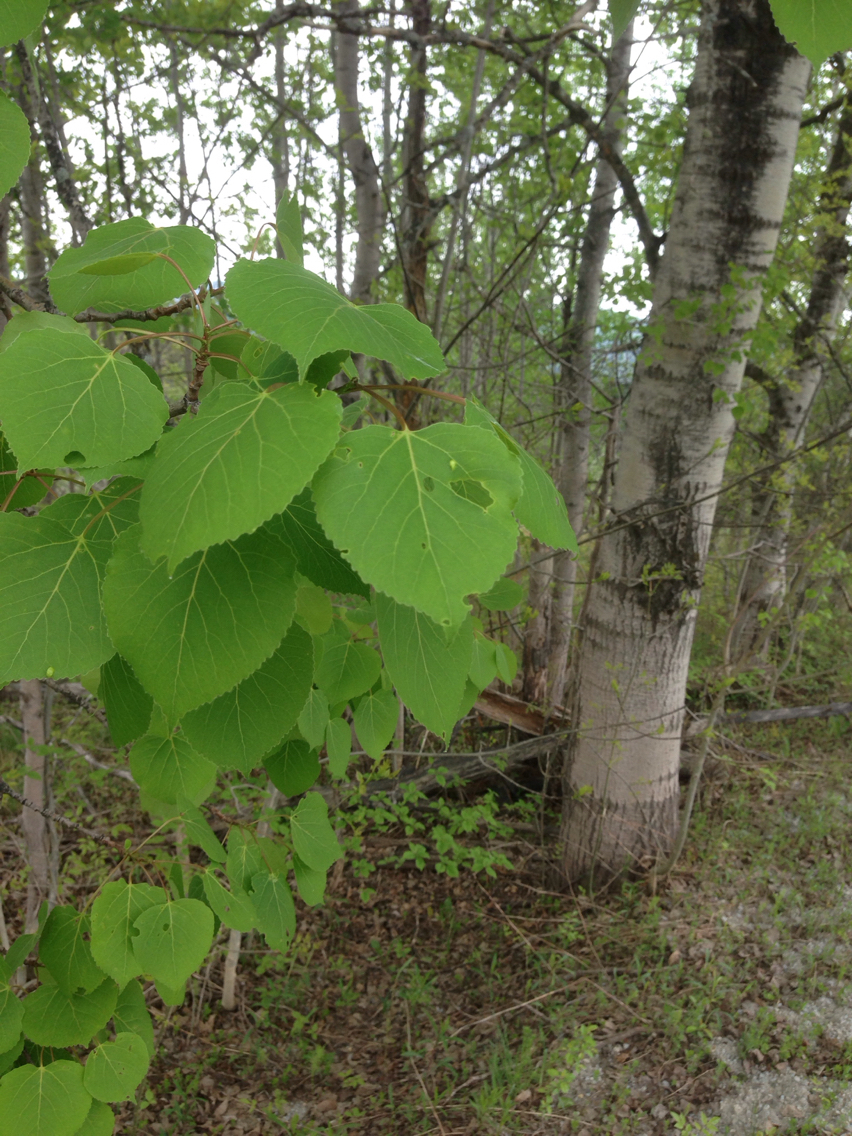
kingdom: Plantae
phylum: Tracheophyta
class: Magnoliopsida
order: Malpighiales
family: Salicaceae
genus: Populus
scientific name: Populus grandidentata
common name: Bigtooth aspen
